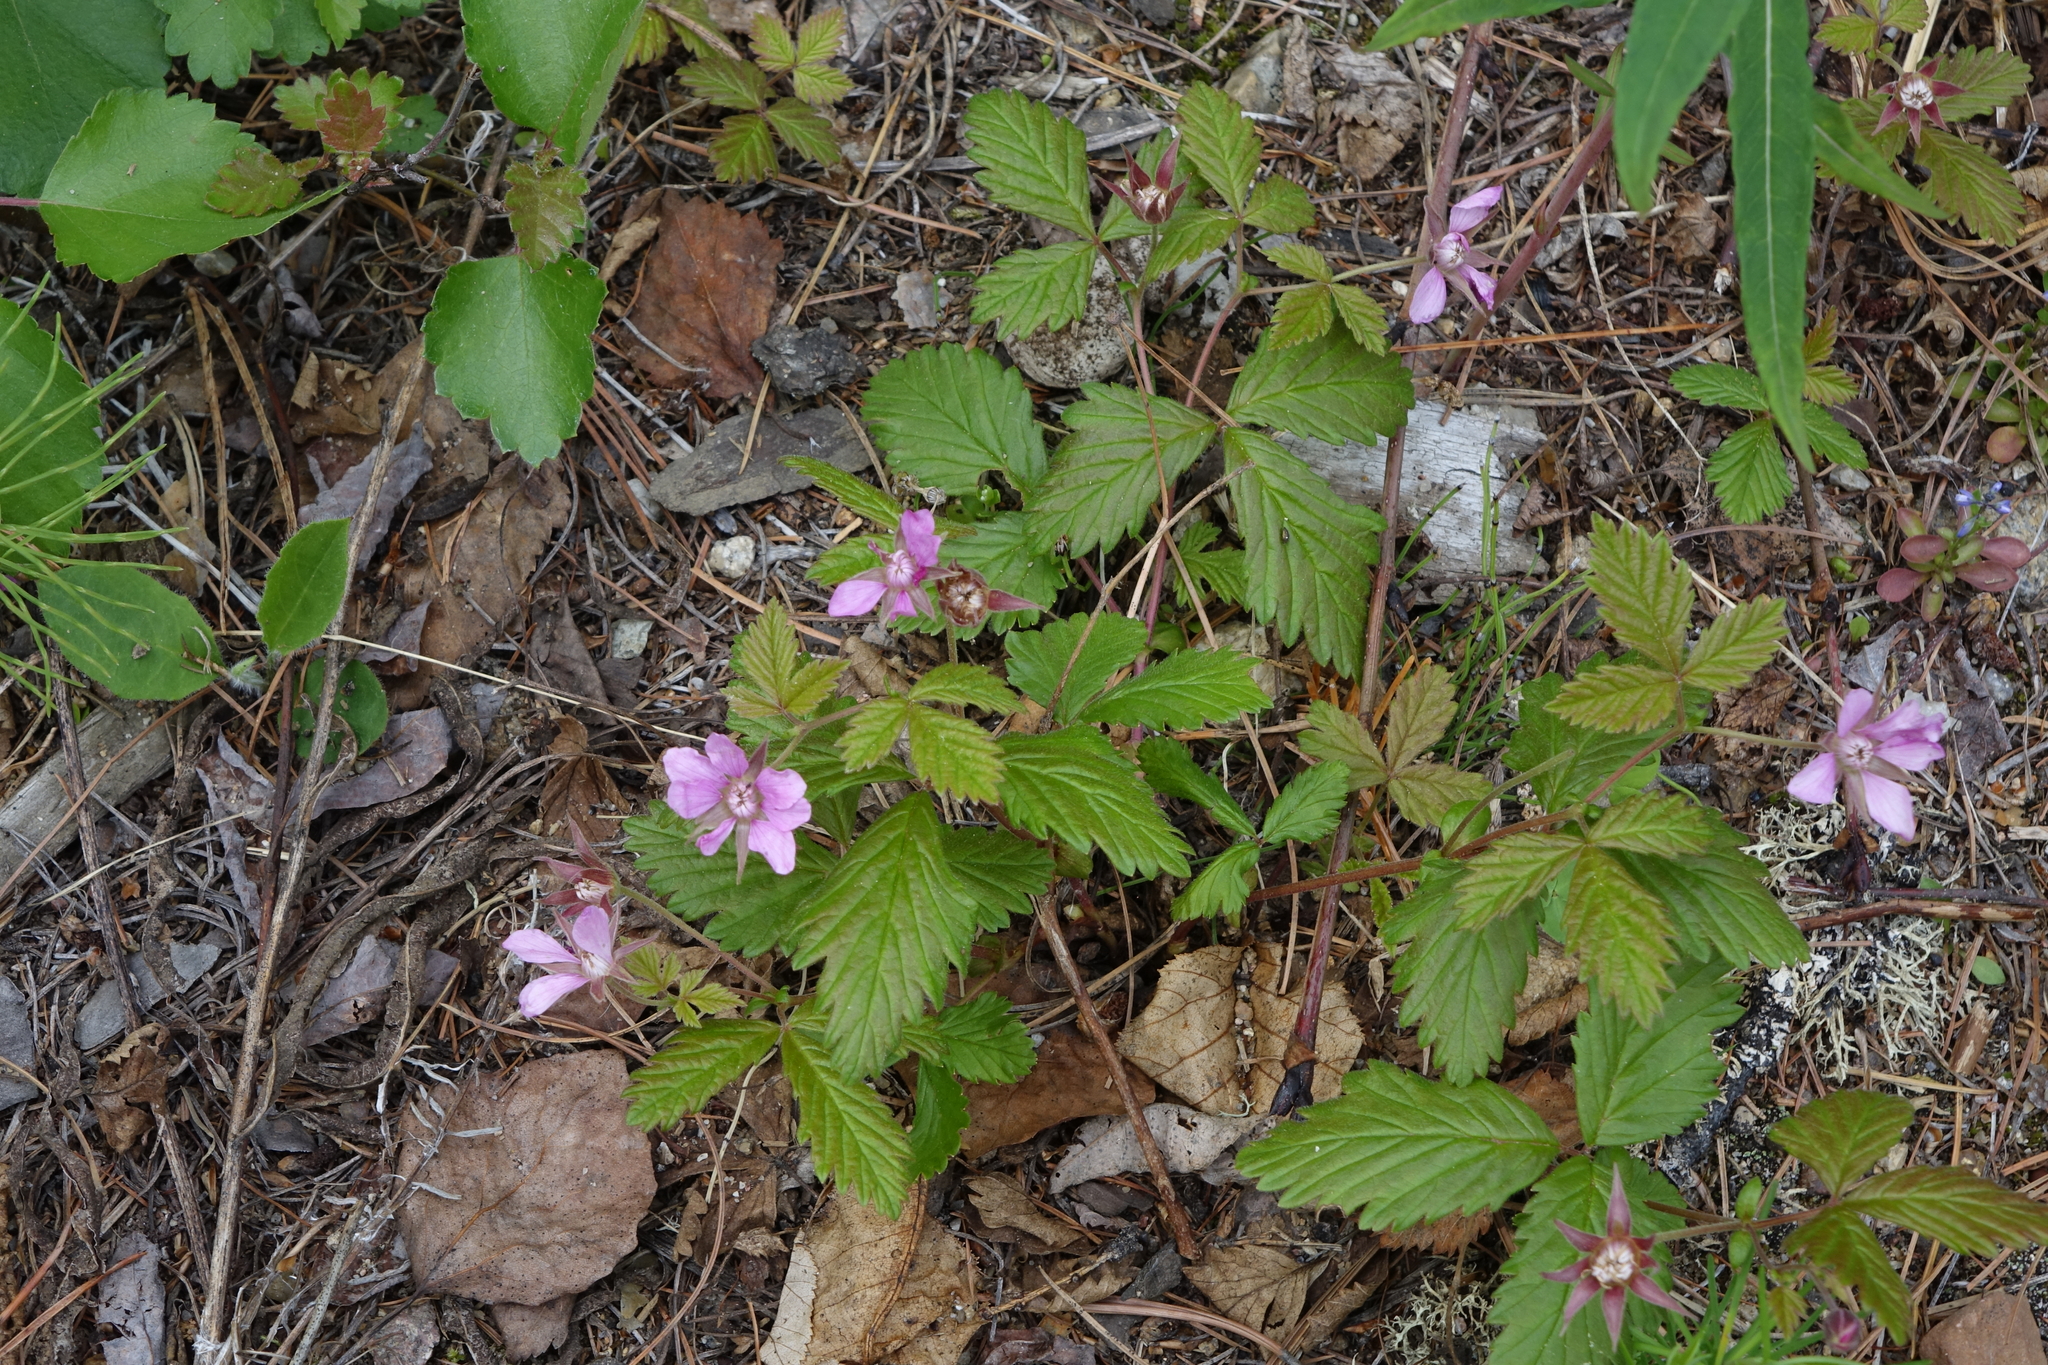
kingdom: Plantae
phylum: Tracheophyta
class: Magnoliopsida
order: Rosales
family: Rosaceae
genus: Rubus
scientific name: Rubus arcticus
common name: Arctic bramble
